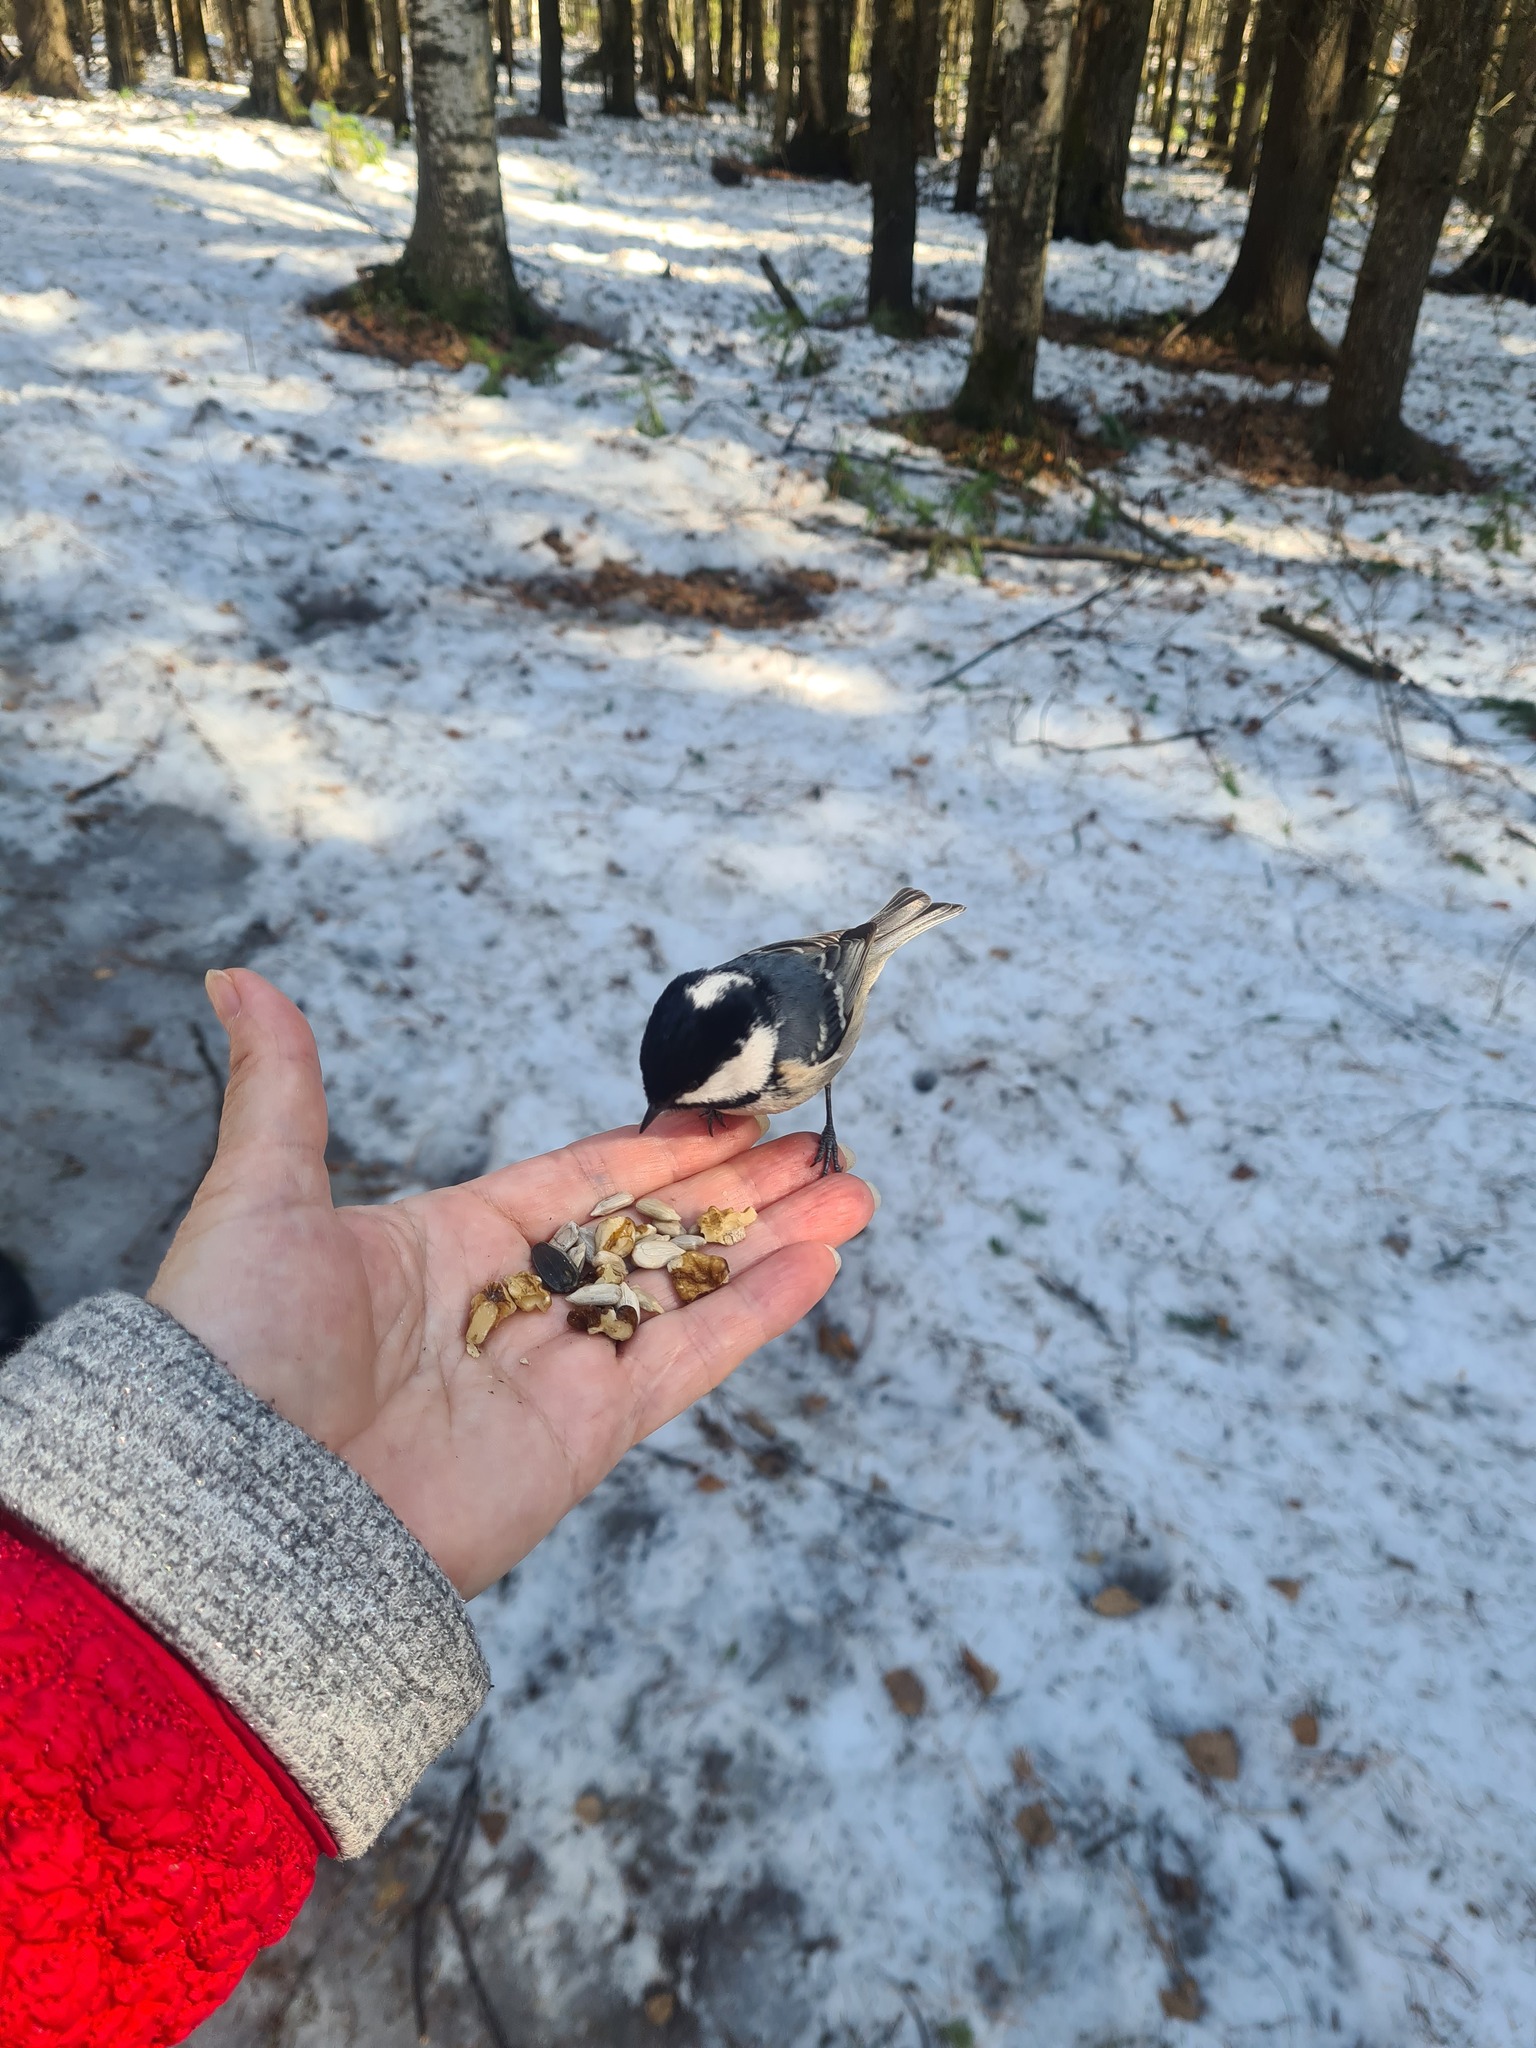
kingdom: Animalia
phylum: Chordata
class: Aves
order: Passeriformes
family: Paridae
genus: Periparus
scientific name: Periparus ater
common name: Coal tit
